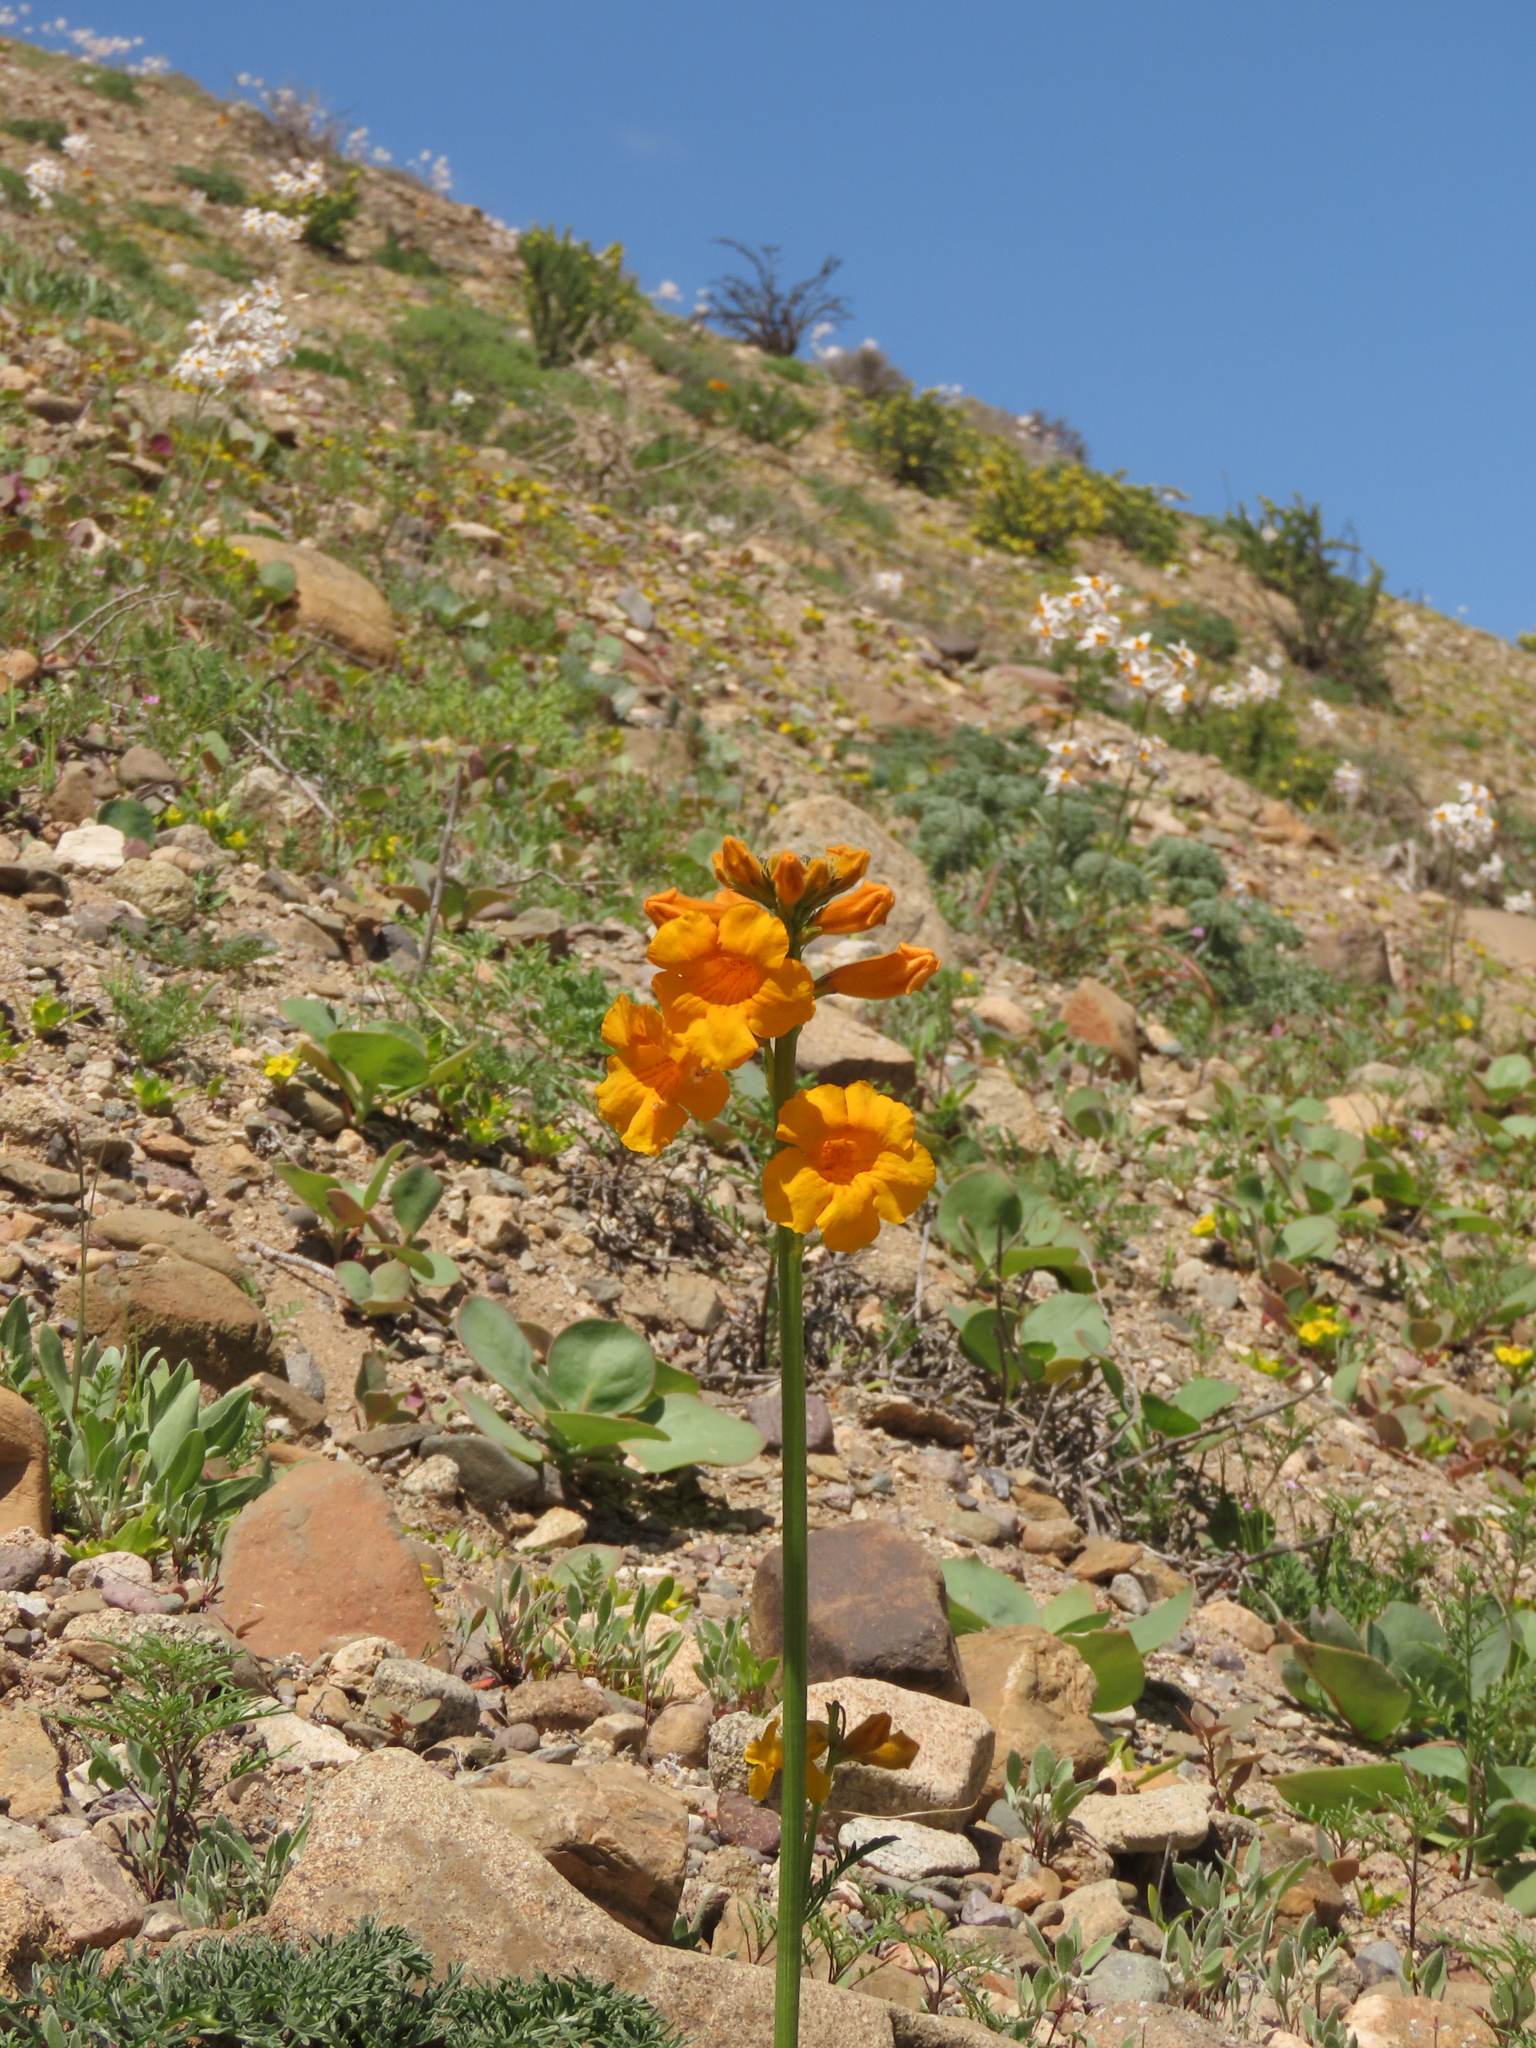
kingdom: Plantae
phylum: Tracheophyta
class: Magnoliopsida
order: Lamiales
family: Bignoniaceae
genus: Argylia
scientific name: Argylia radiata
